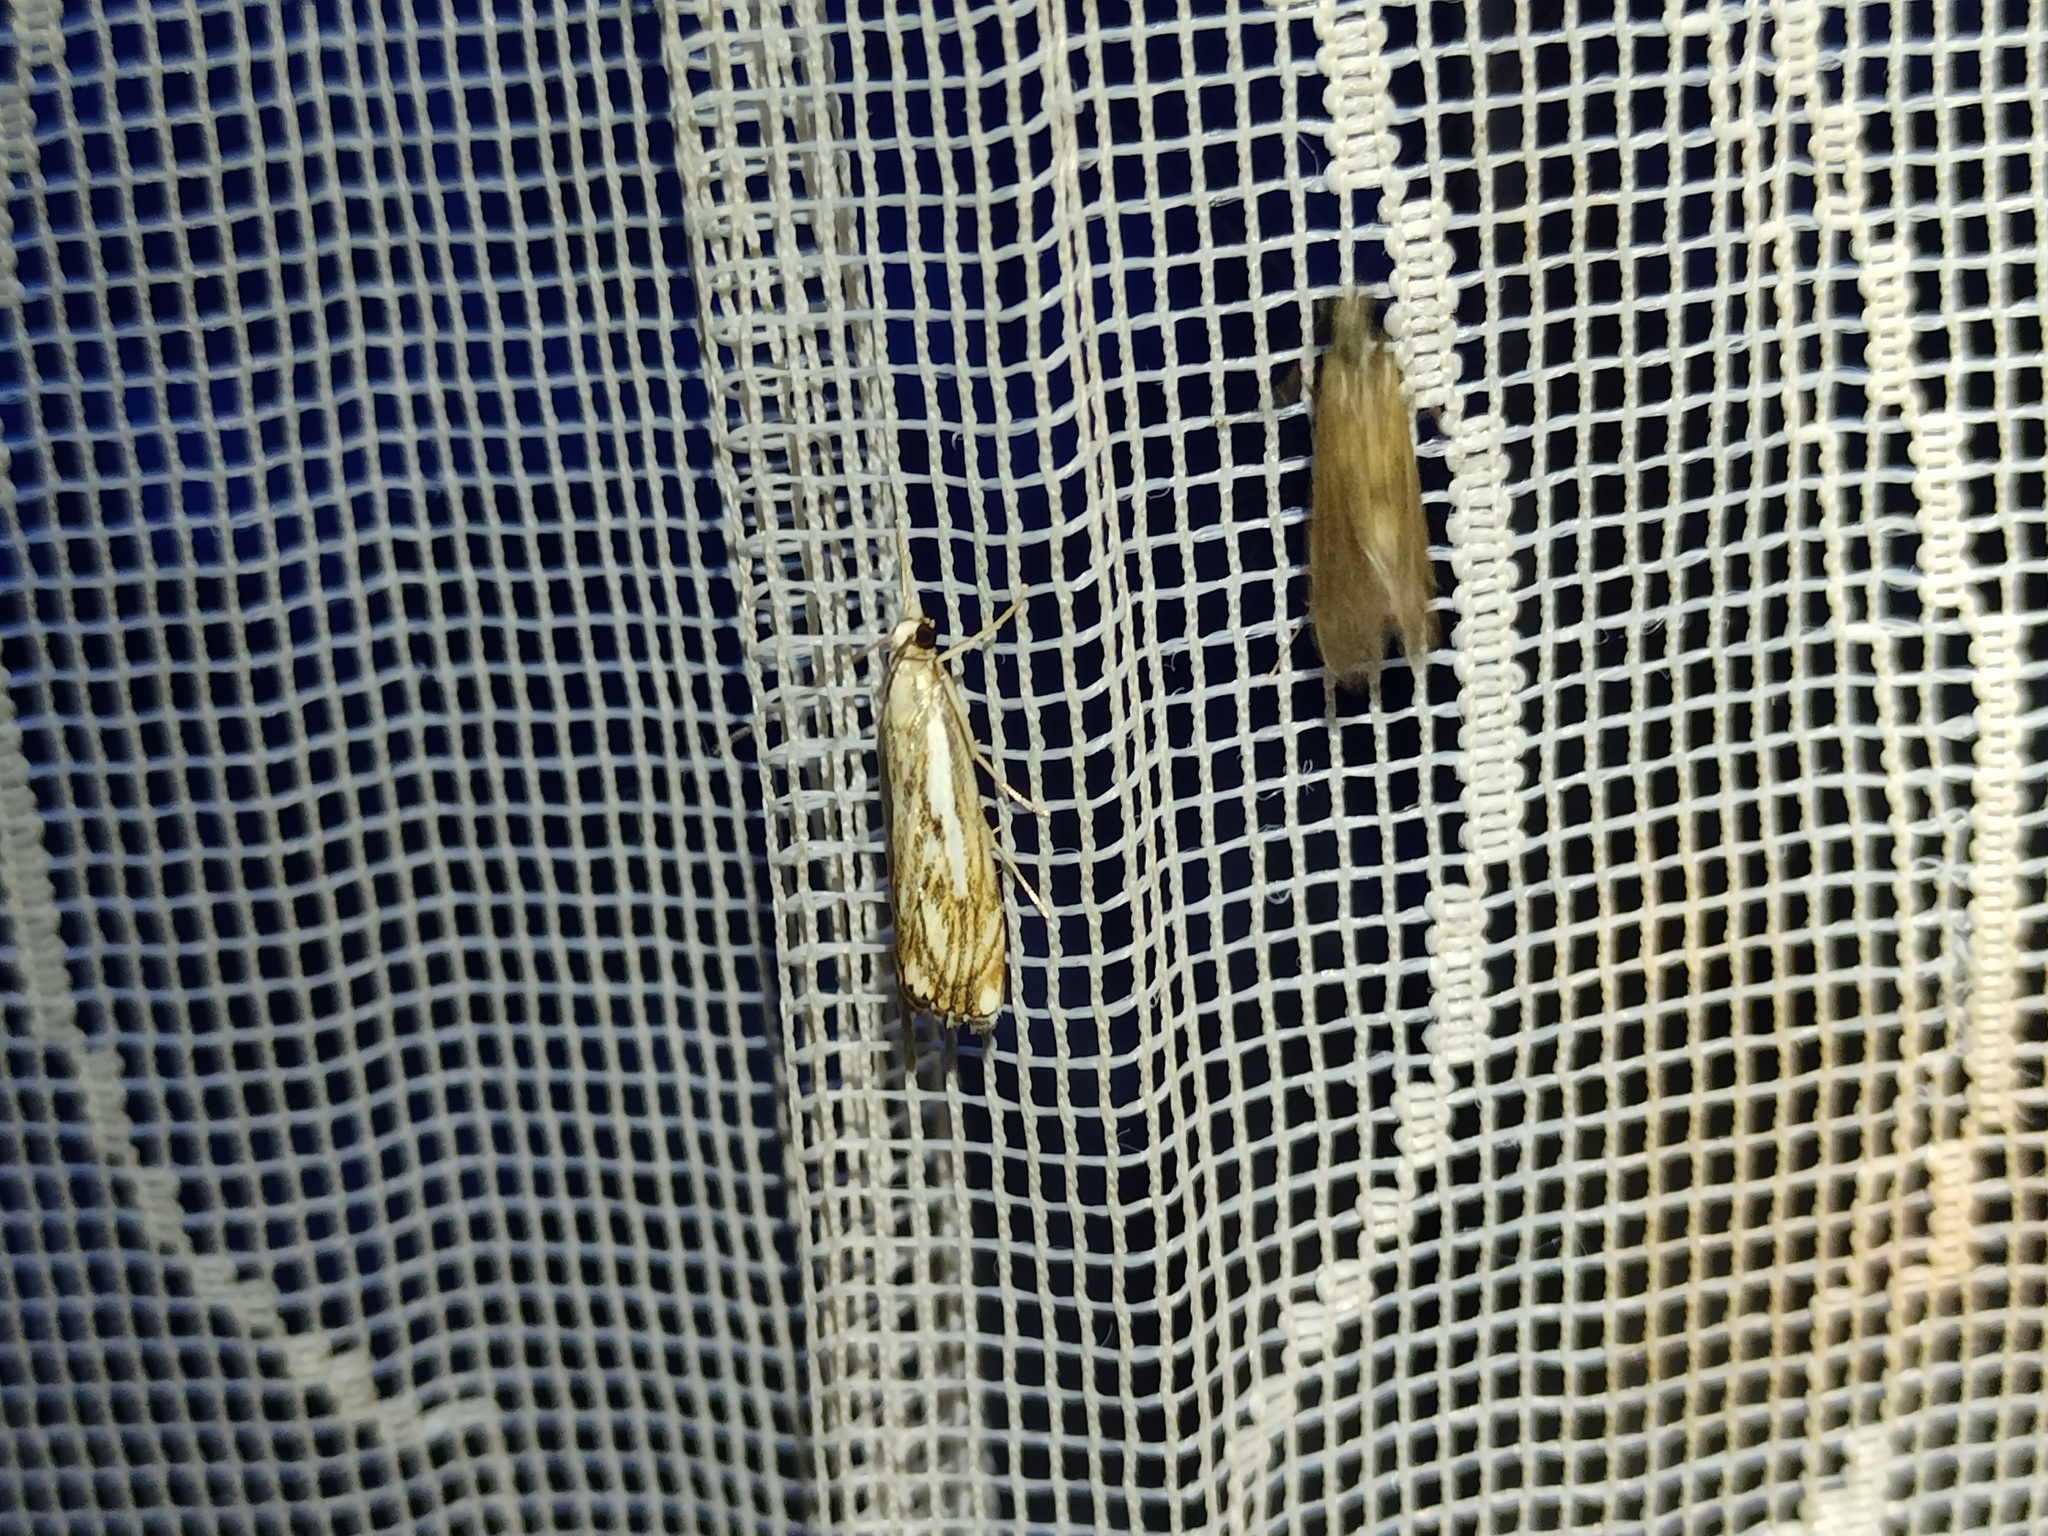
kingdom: Animalia
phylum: Arthropoda
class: Insecta
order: Lepidoptera
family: Crambidae
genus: Catoptria
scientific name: Catoptria falsella
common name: Chequered grass-veneer
